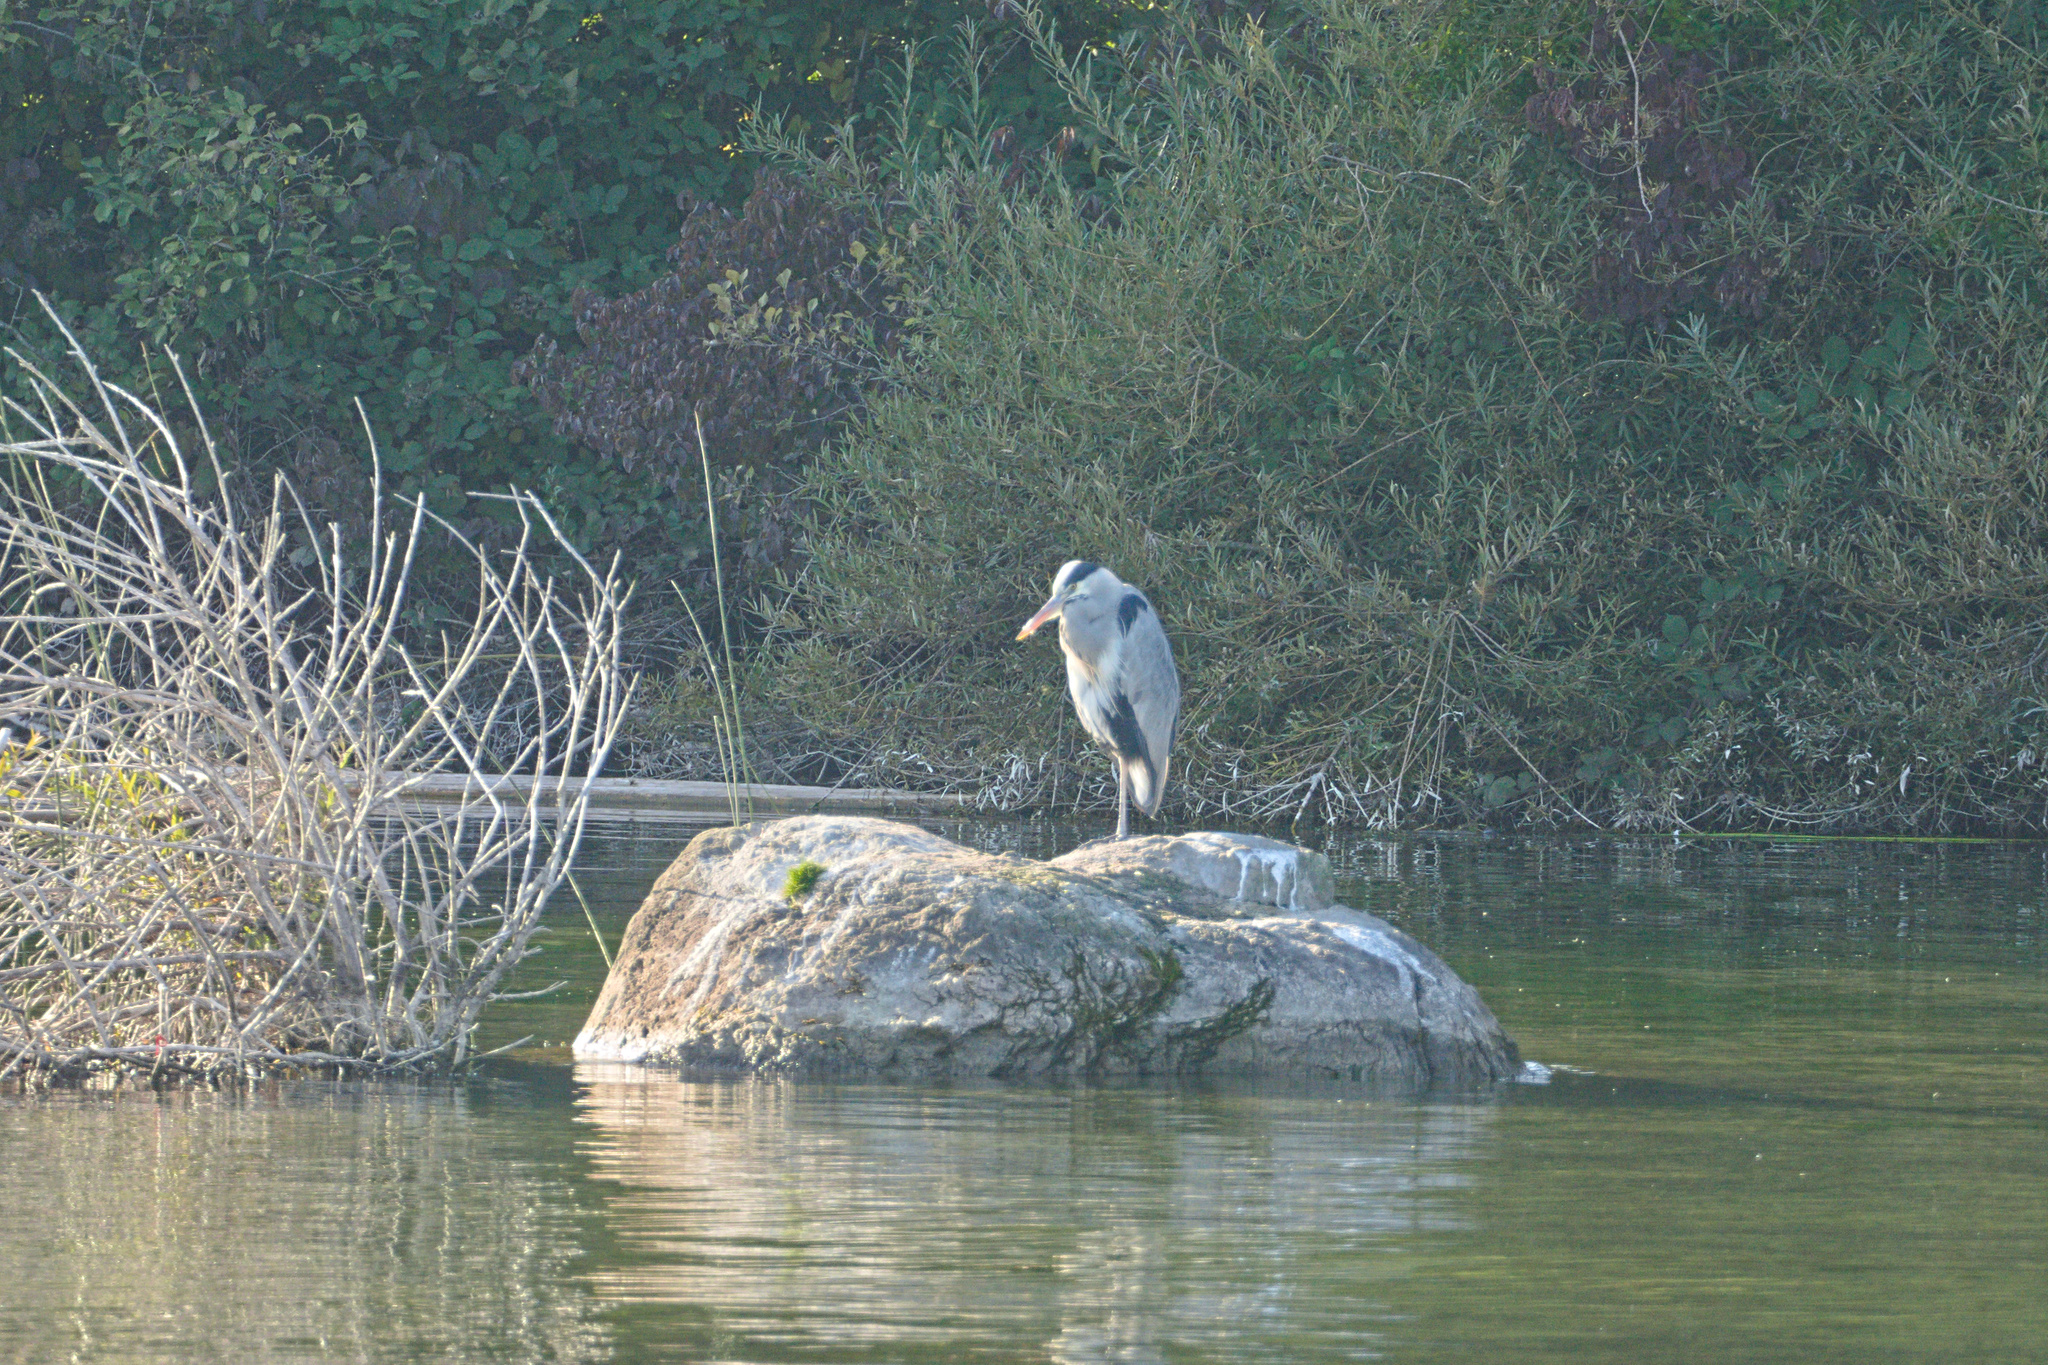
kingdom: Animalia
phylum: Chordata
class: Aves
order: Pelecaniformes
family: Ardeidae
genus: Ardea
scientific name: Ardea cinerea
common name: Grey heron
